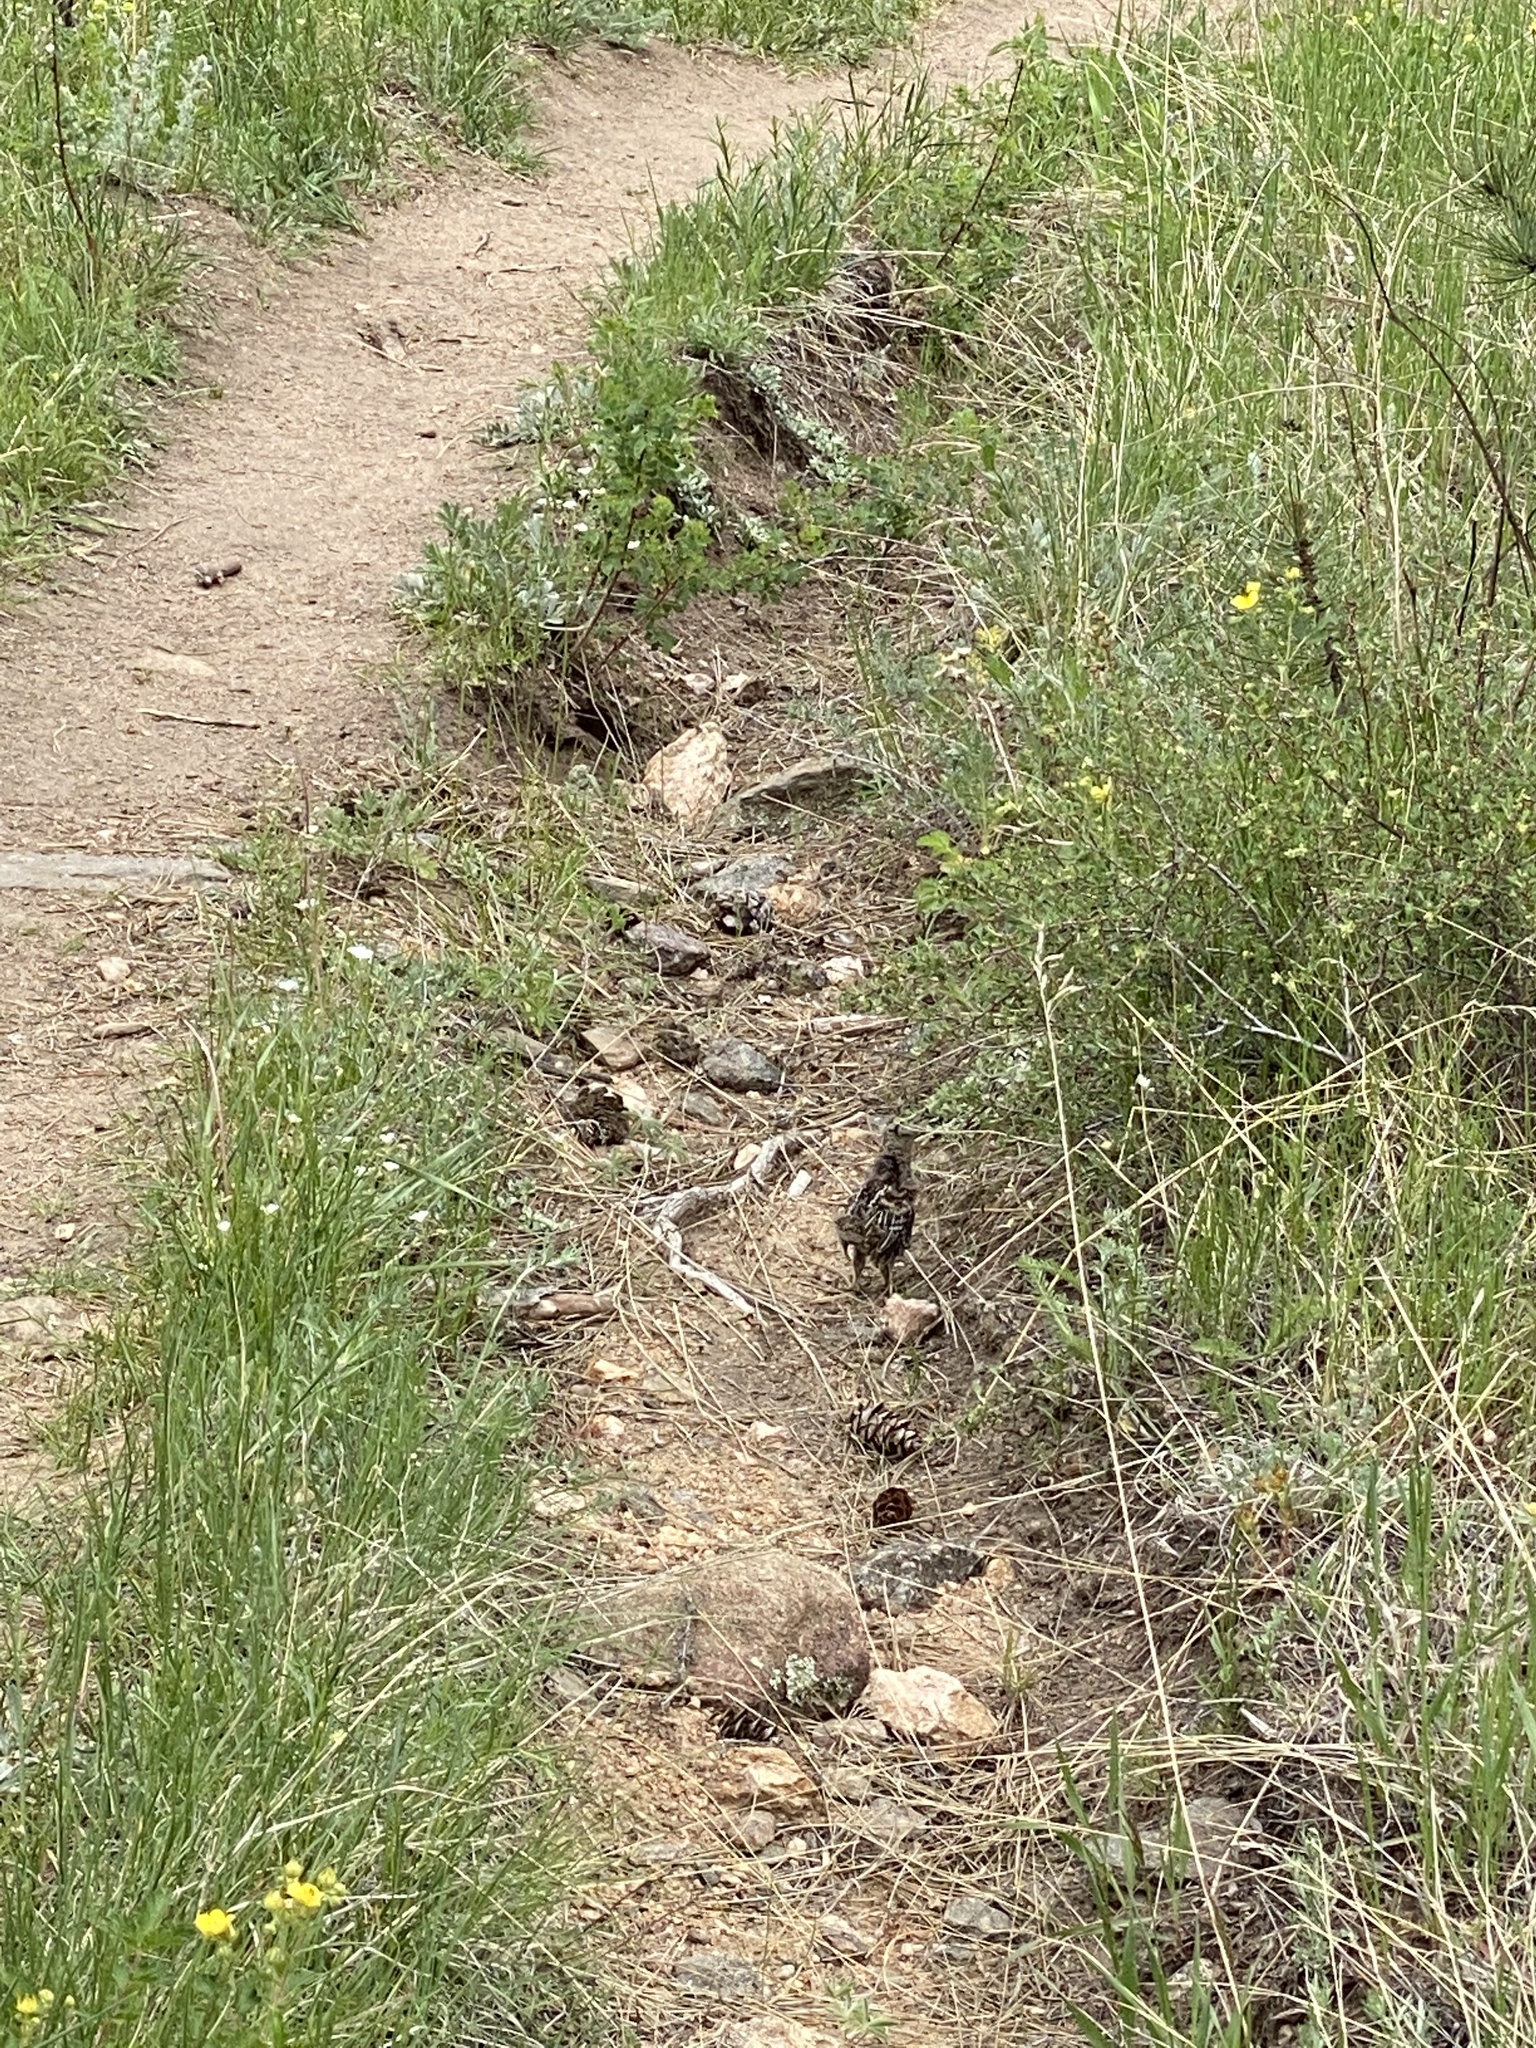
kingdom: Animalia
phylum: Chordata
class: Aves
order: Galliformes
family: Phasianidae
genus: Dendragapus
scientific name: Dendragapus obscurus
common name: Dusky grouse
